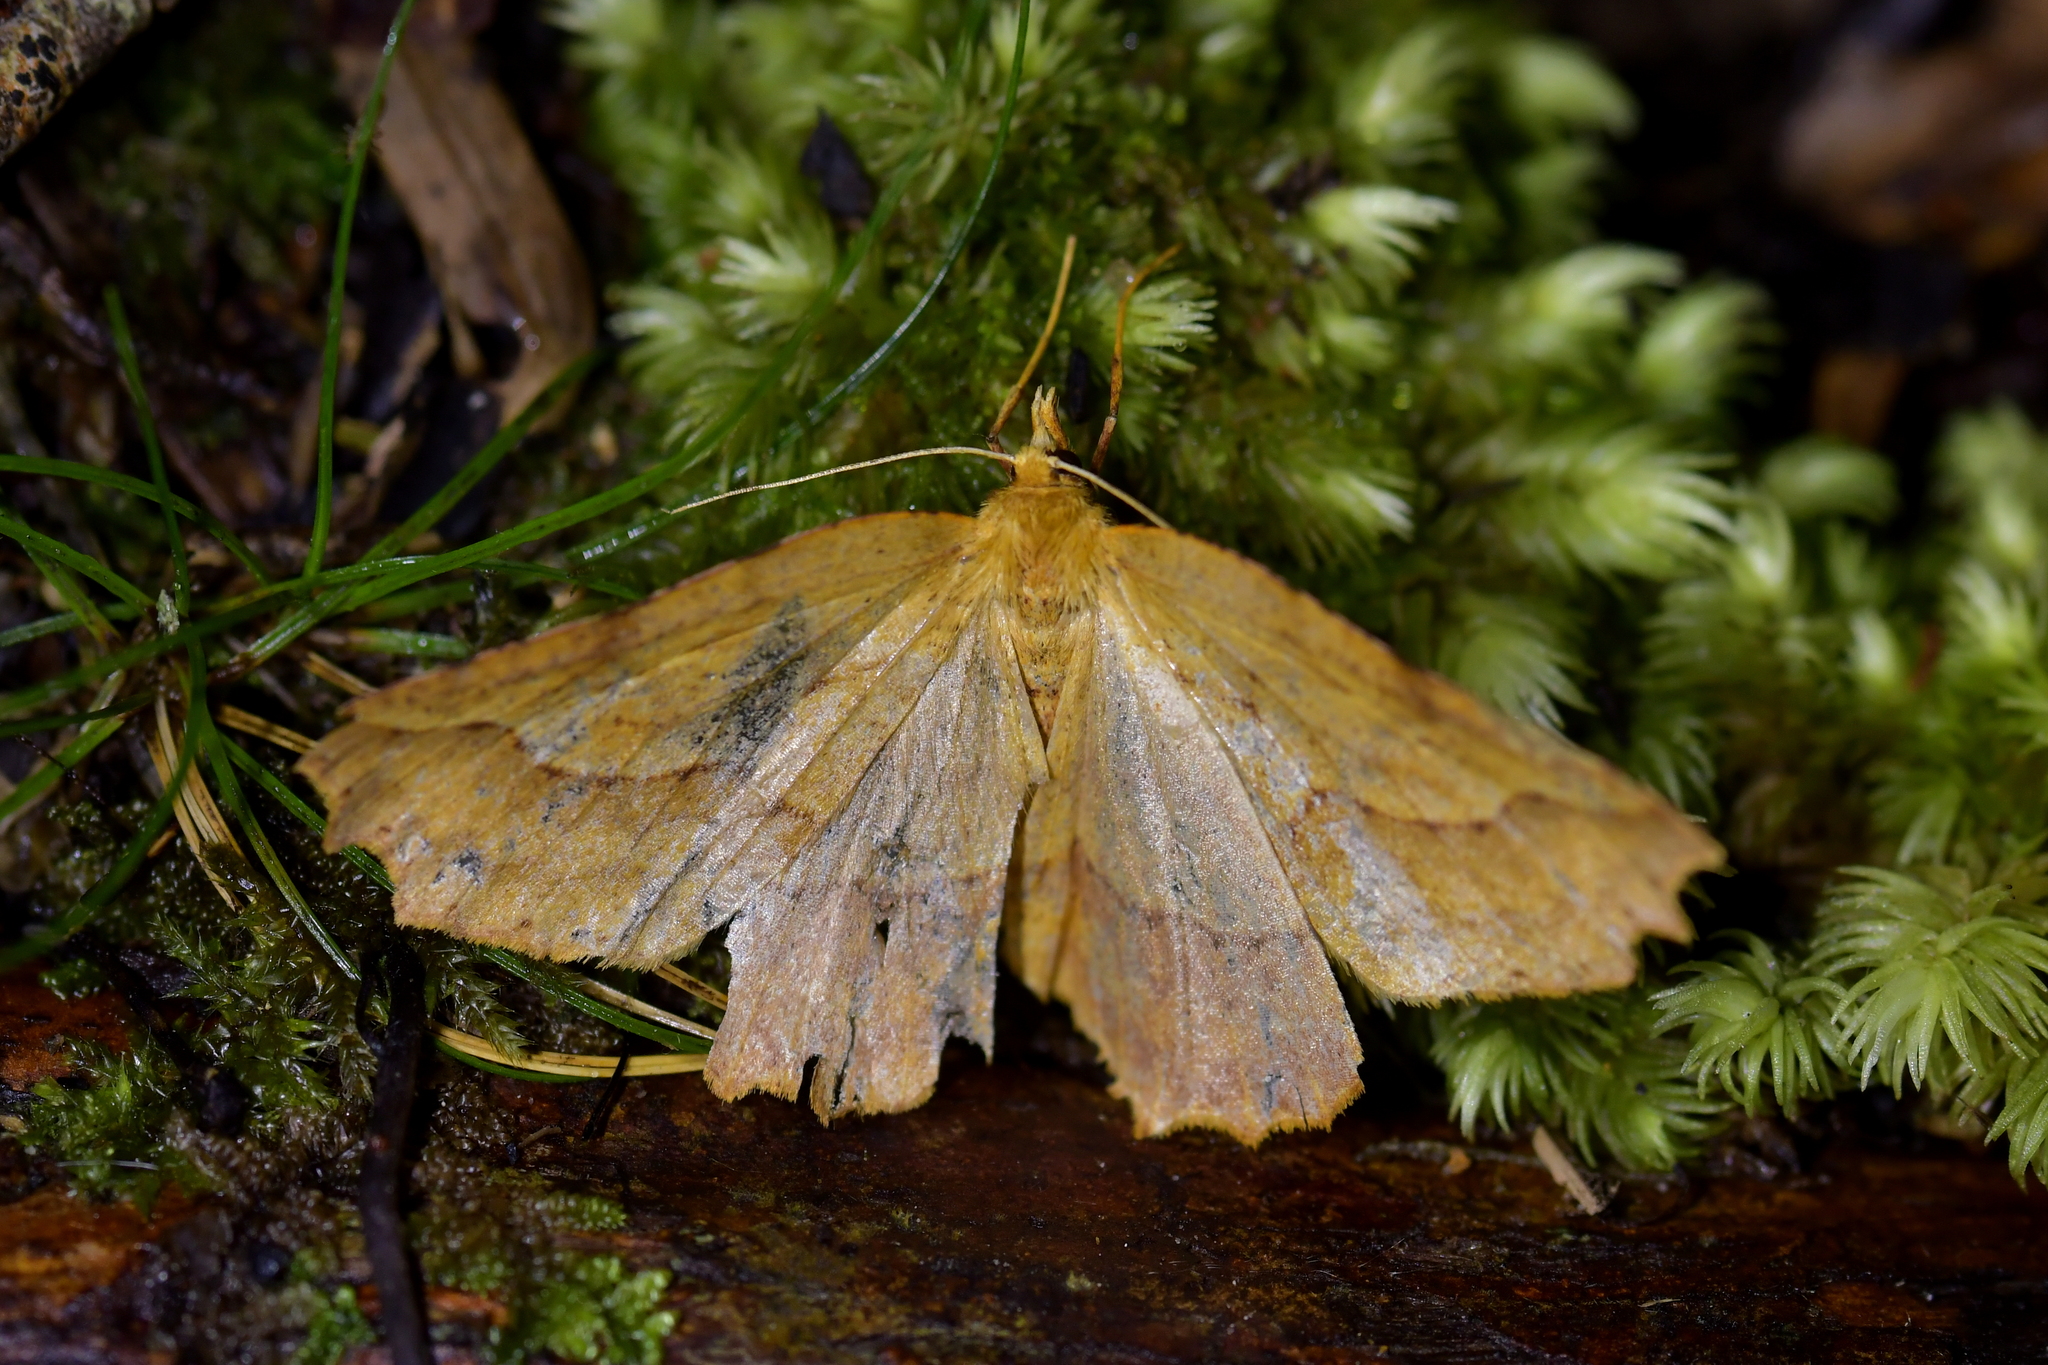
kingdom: Animalia
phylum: Arthropoda
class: Insecta
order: Lepidoptera
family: Geometridae
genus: Ischalis
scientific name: Ischalis variabilis
